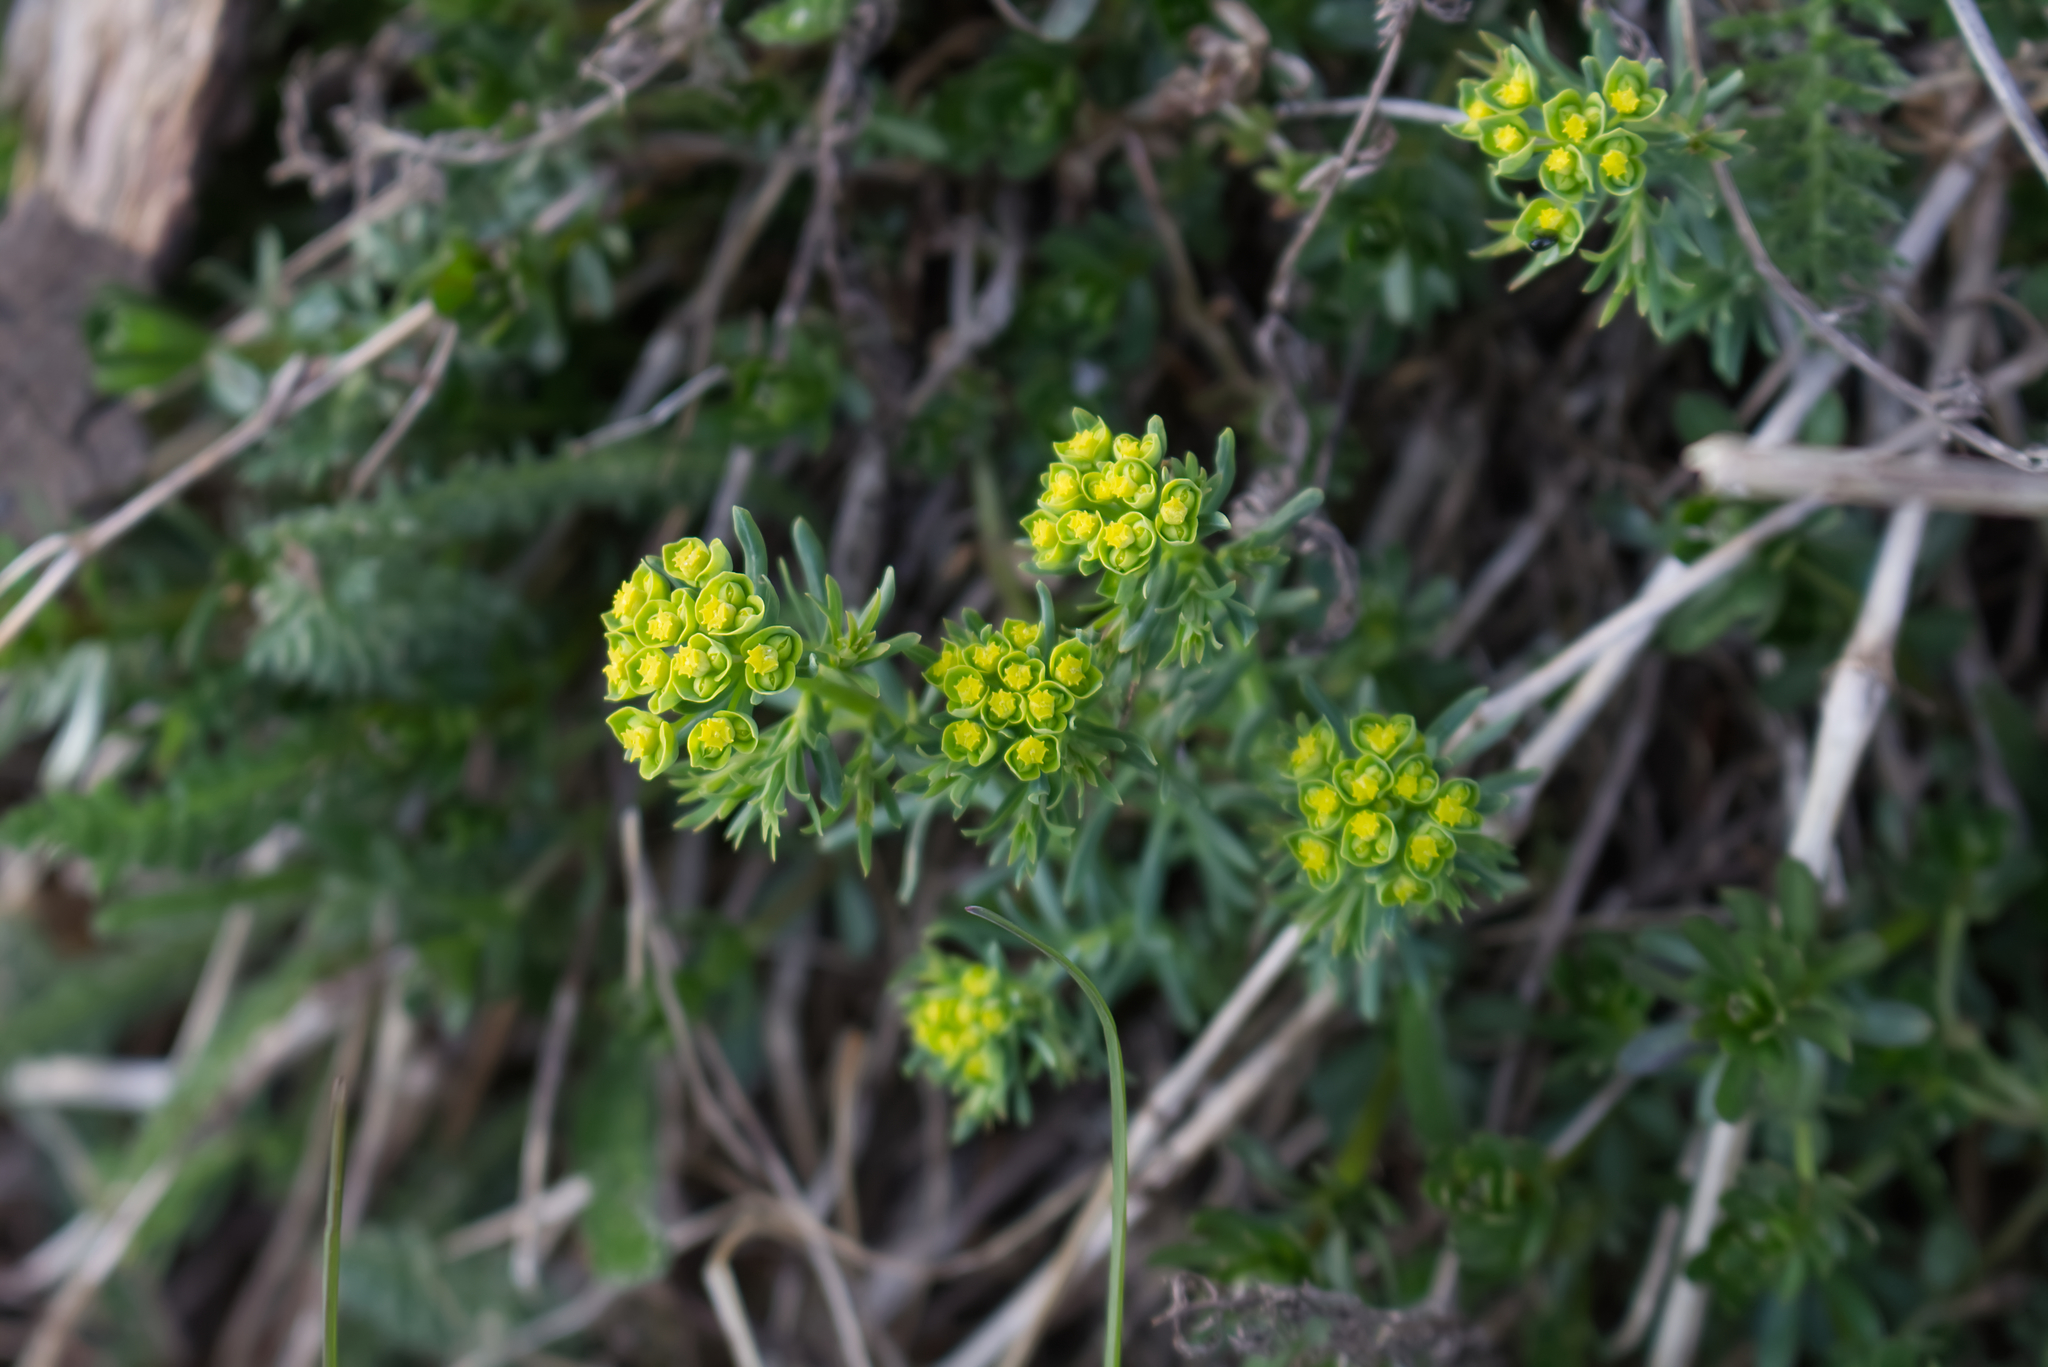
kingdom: Plantae
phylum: Tracheophyta
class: Magnoliopsida
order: Malpighiales
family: Euphorbiaceae
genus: Euphorbia
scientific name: Euphorbia cyparissias
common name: Cypress spurge
